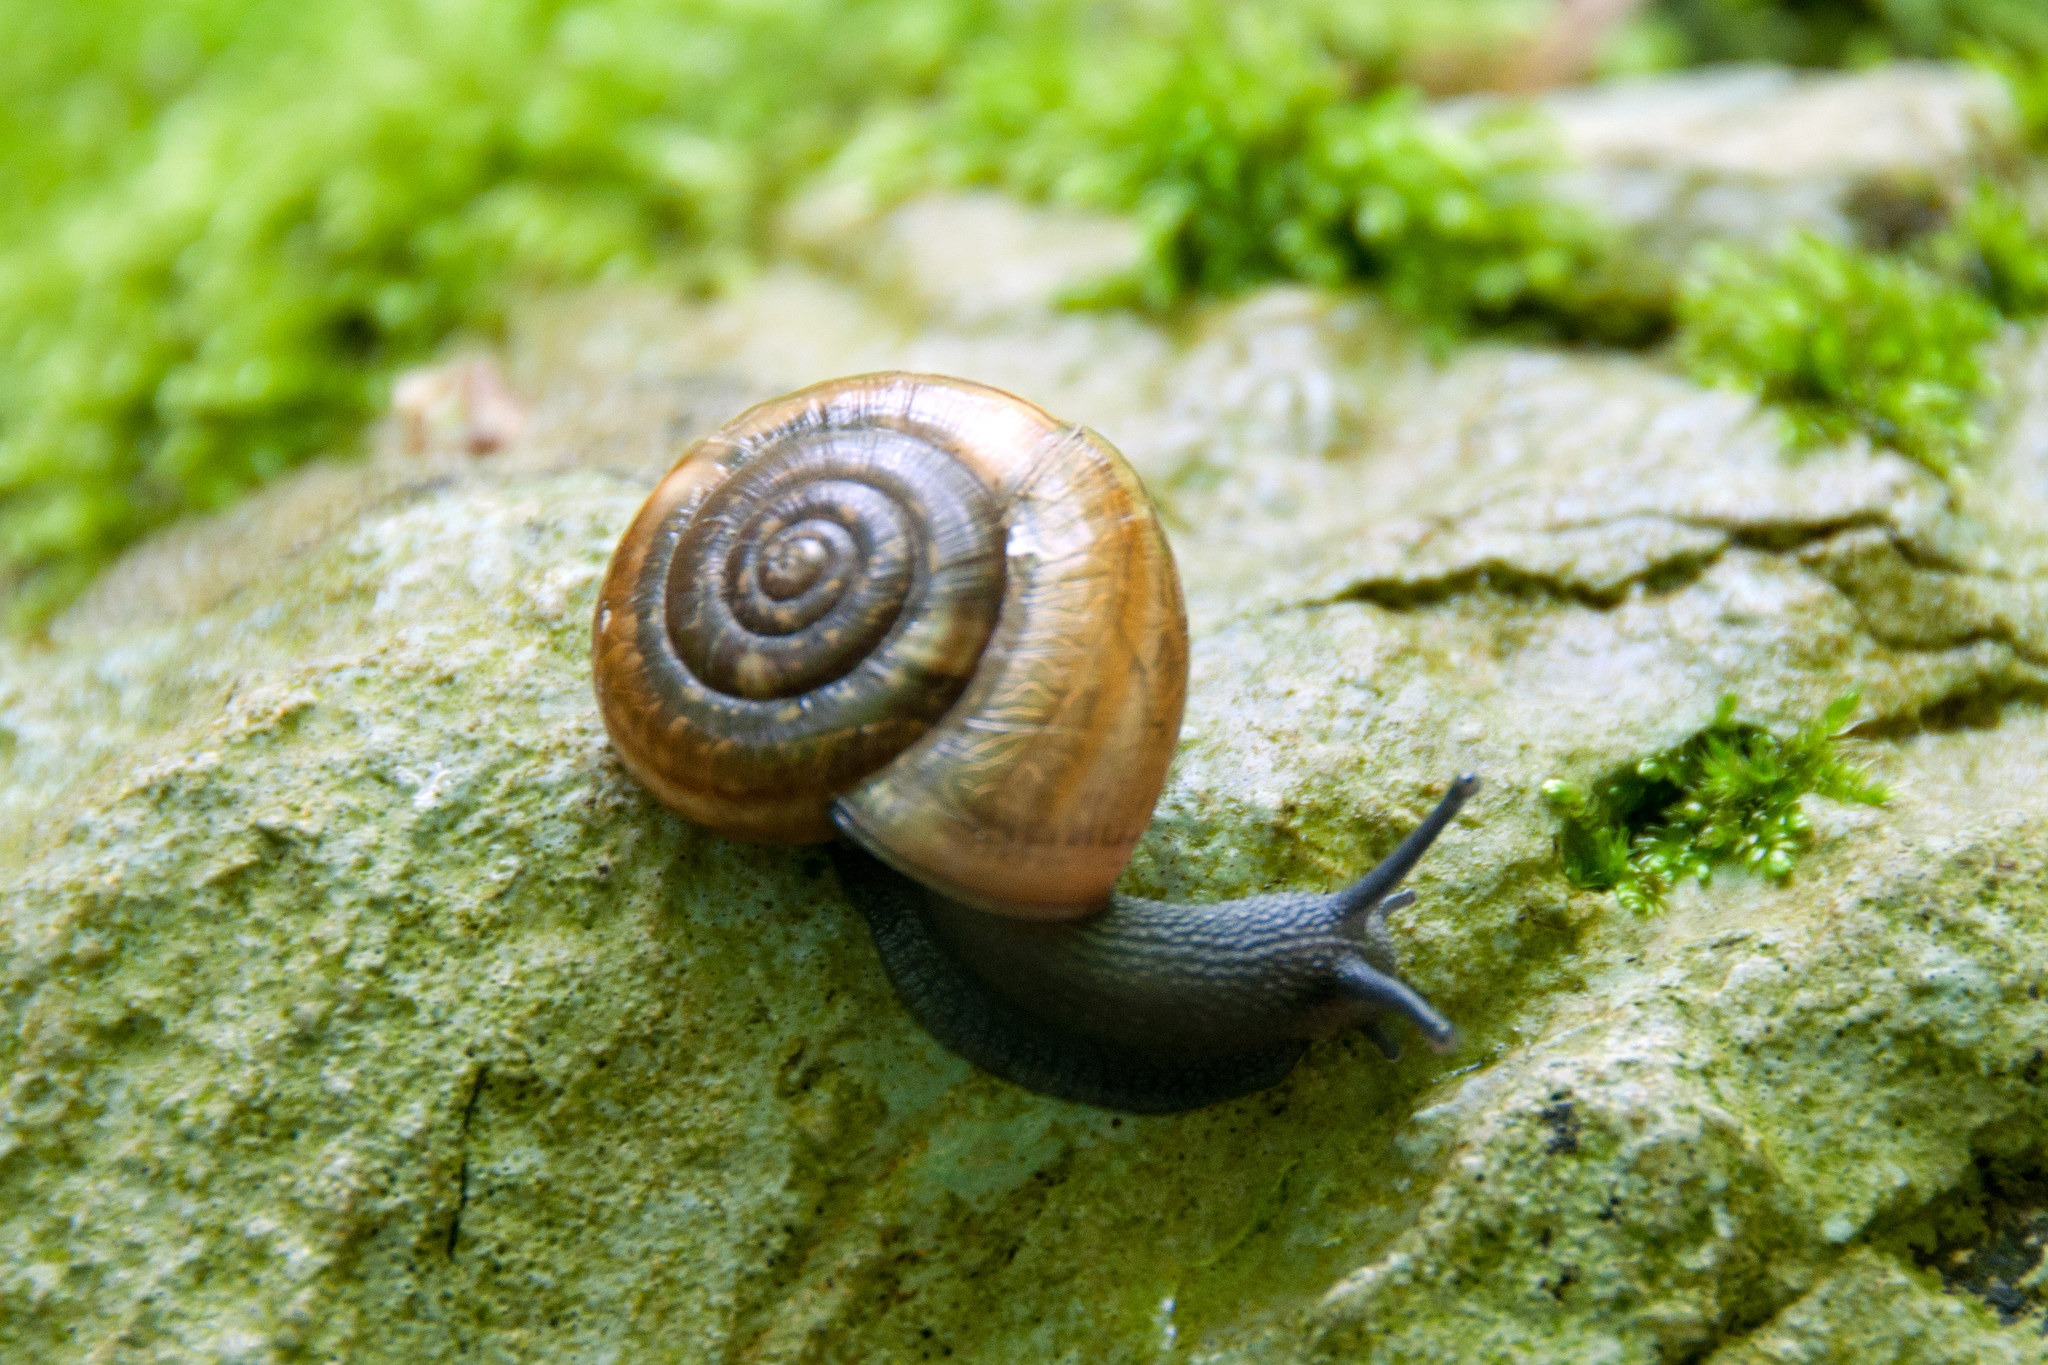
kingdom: Animalia
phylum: Mollusca
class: Gastropoda
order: Stylommatophora
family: Helicidae
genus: Campylaea
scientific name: Campylaea illyrica
